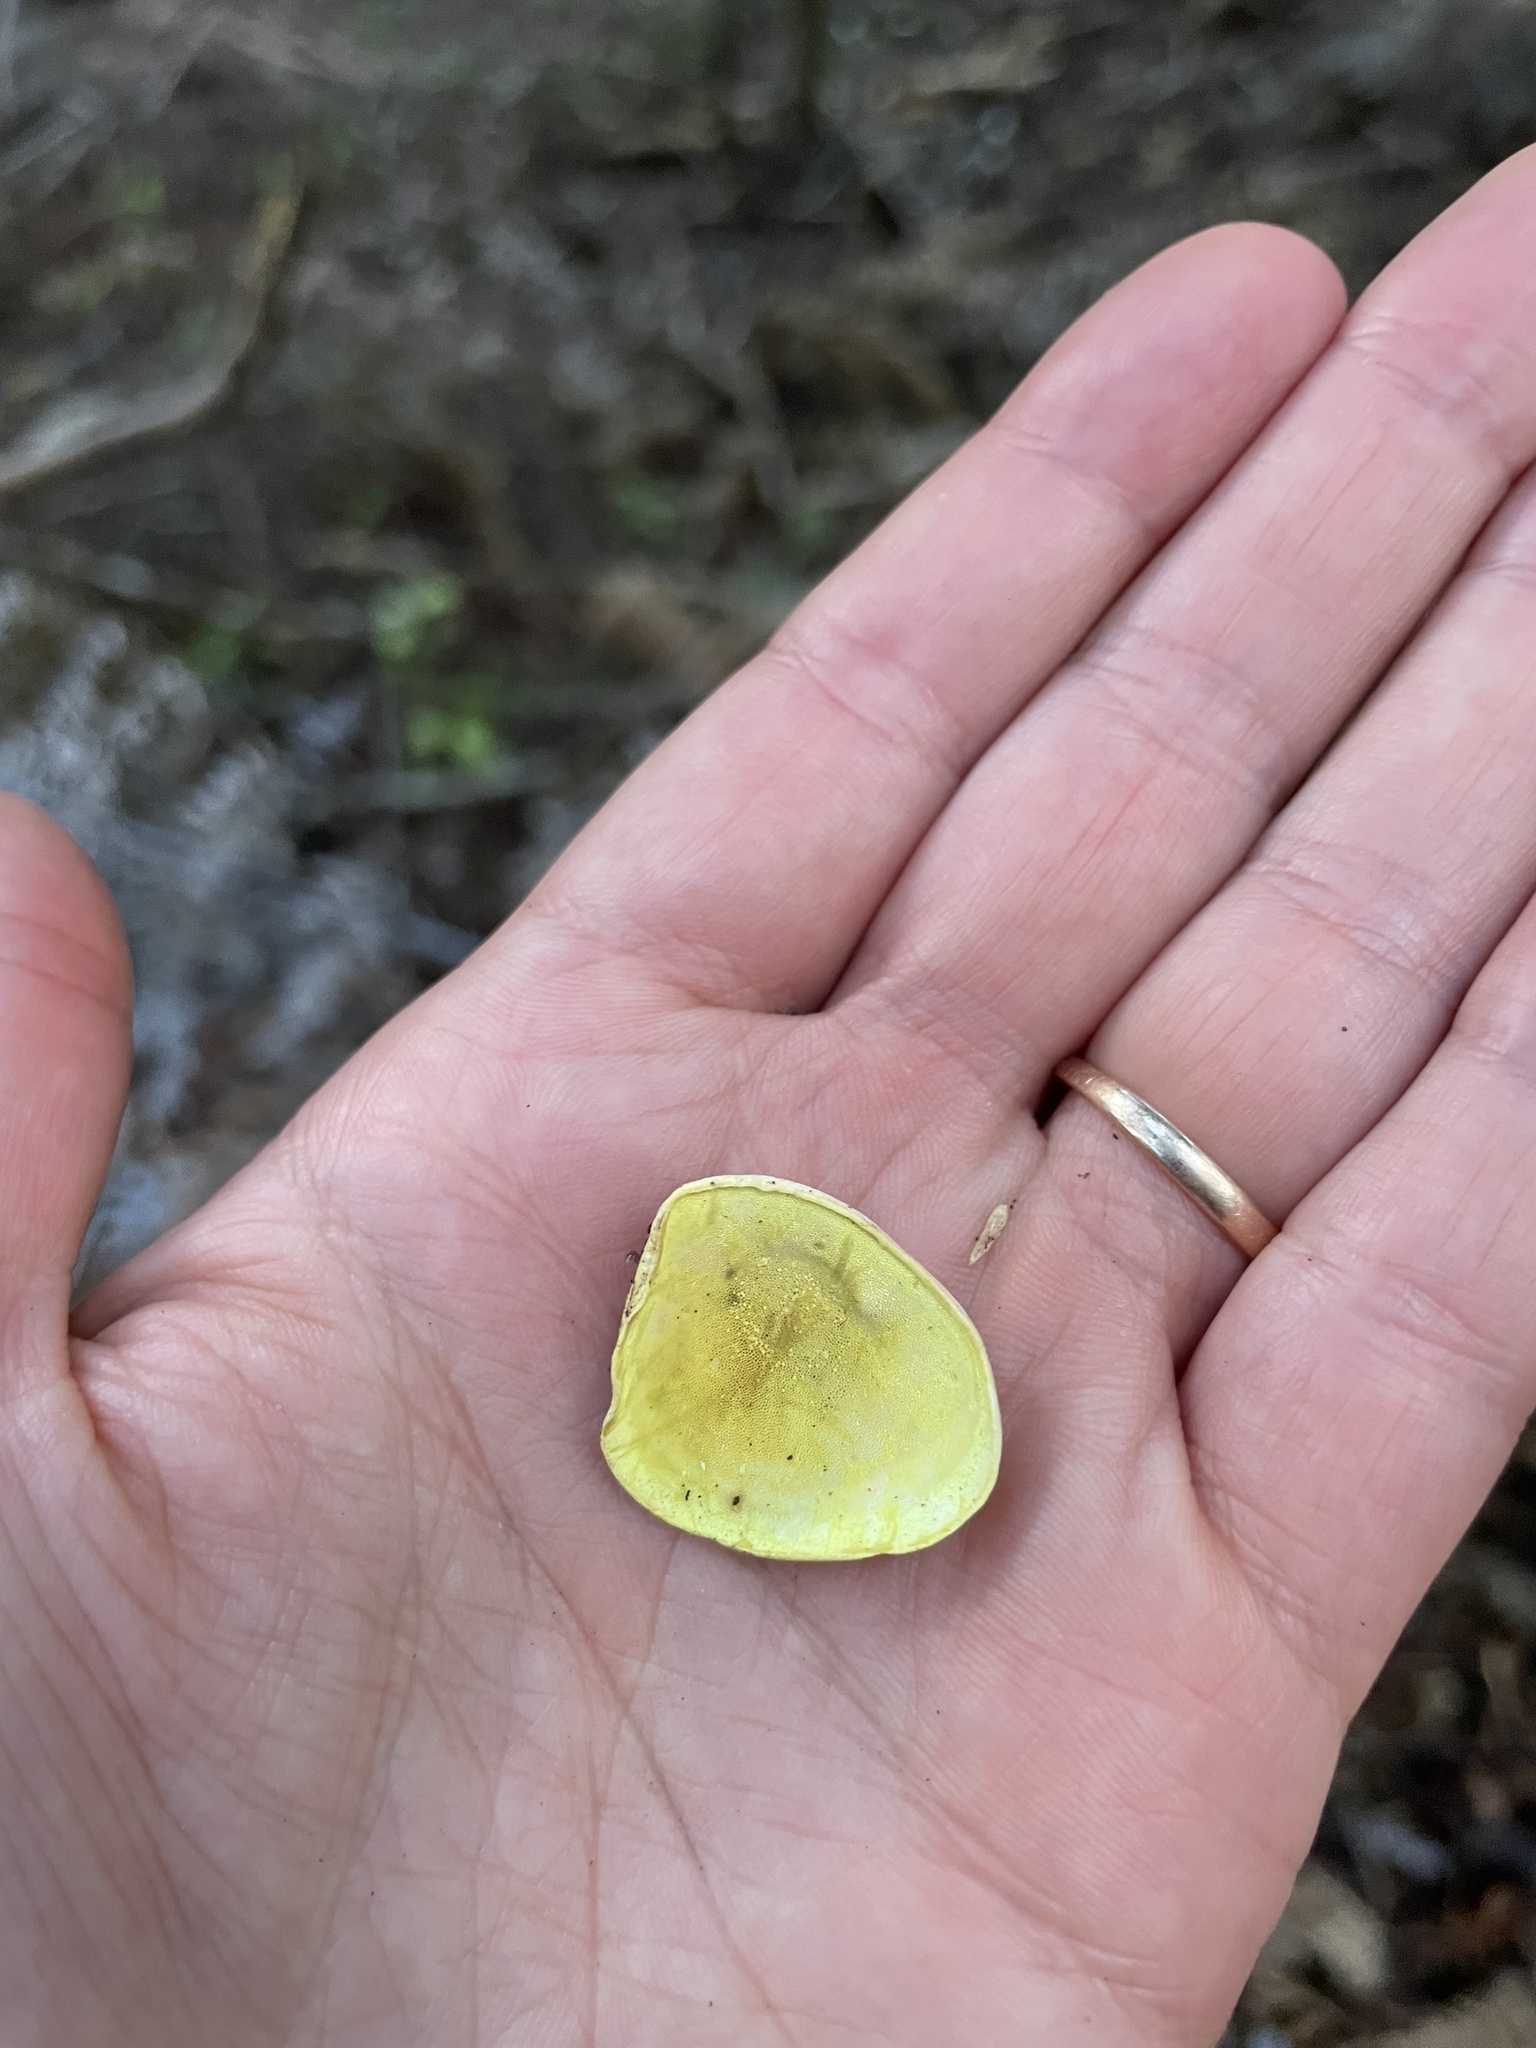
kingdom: Fungi
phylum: Basidiomycota
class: Agaricomycetes
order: Polyporales
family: Steccherinaceae
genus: Austeria
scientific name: Austeria citrea
